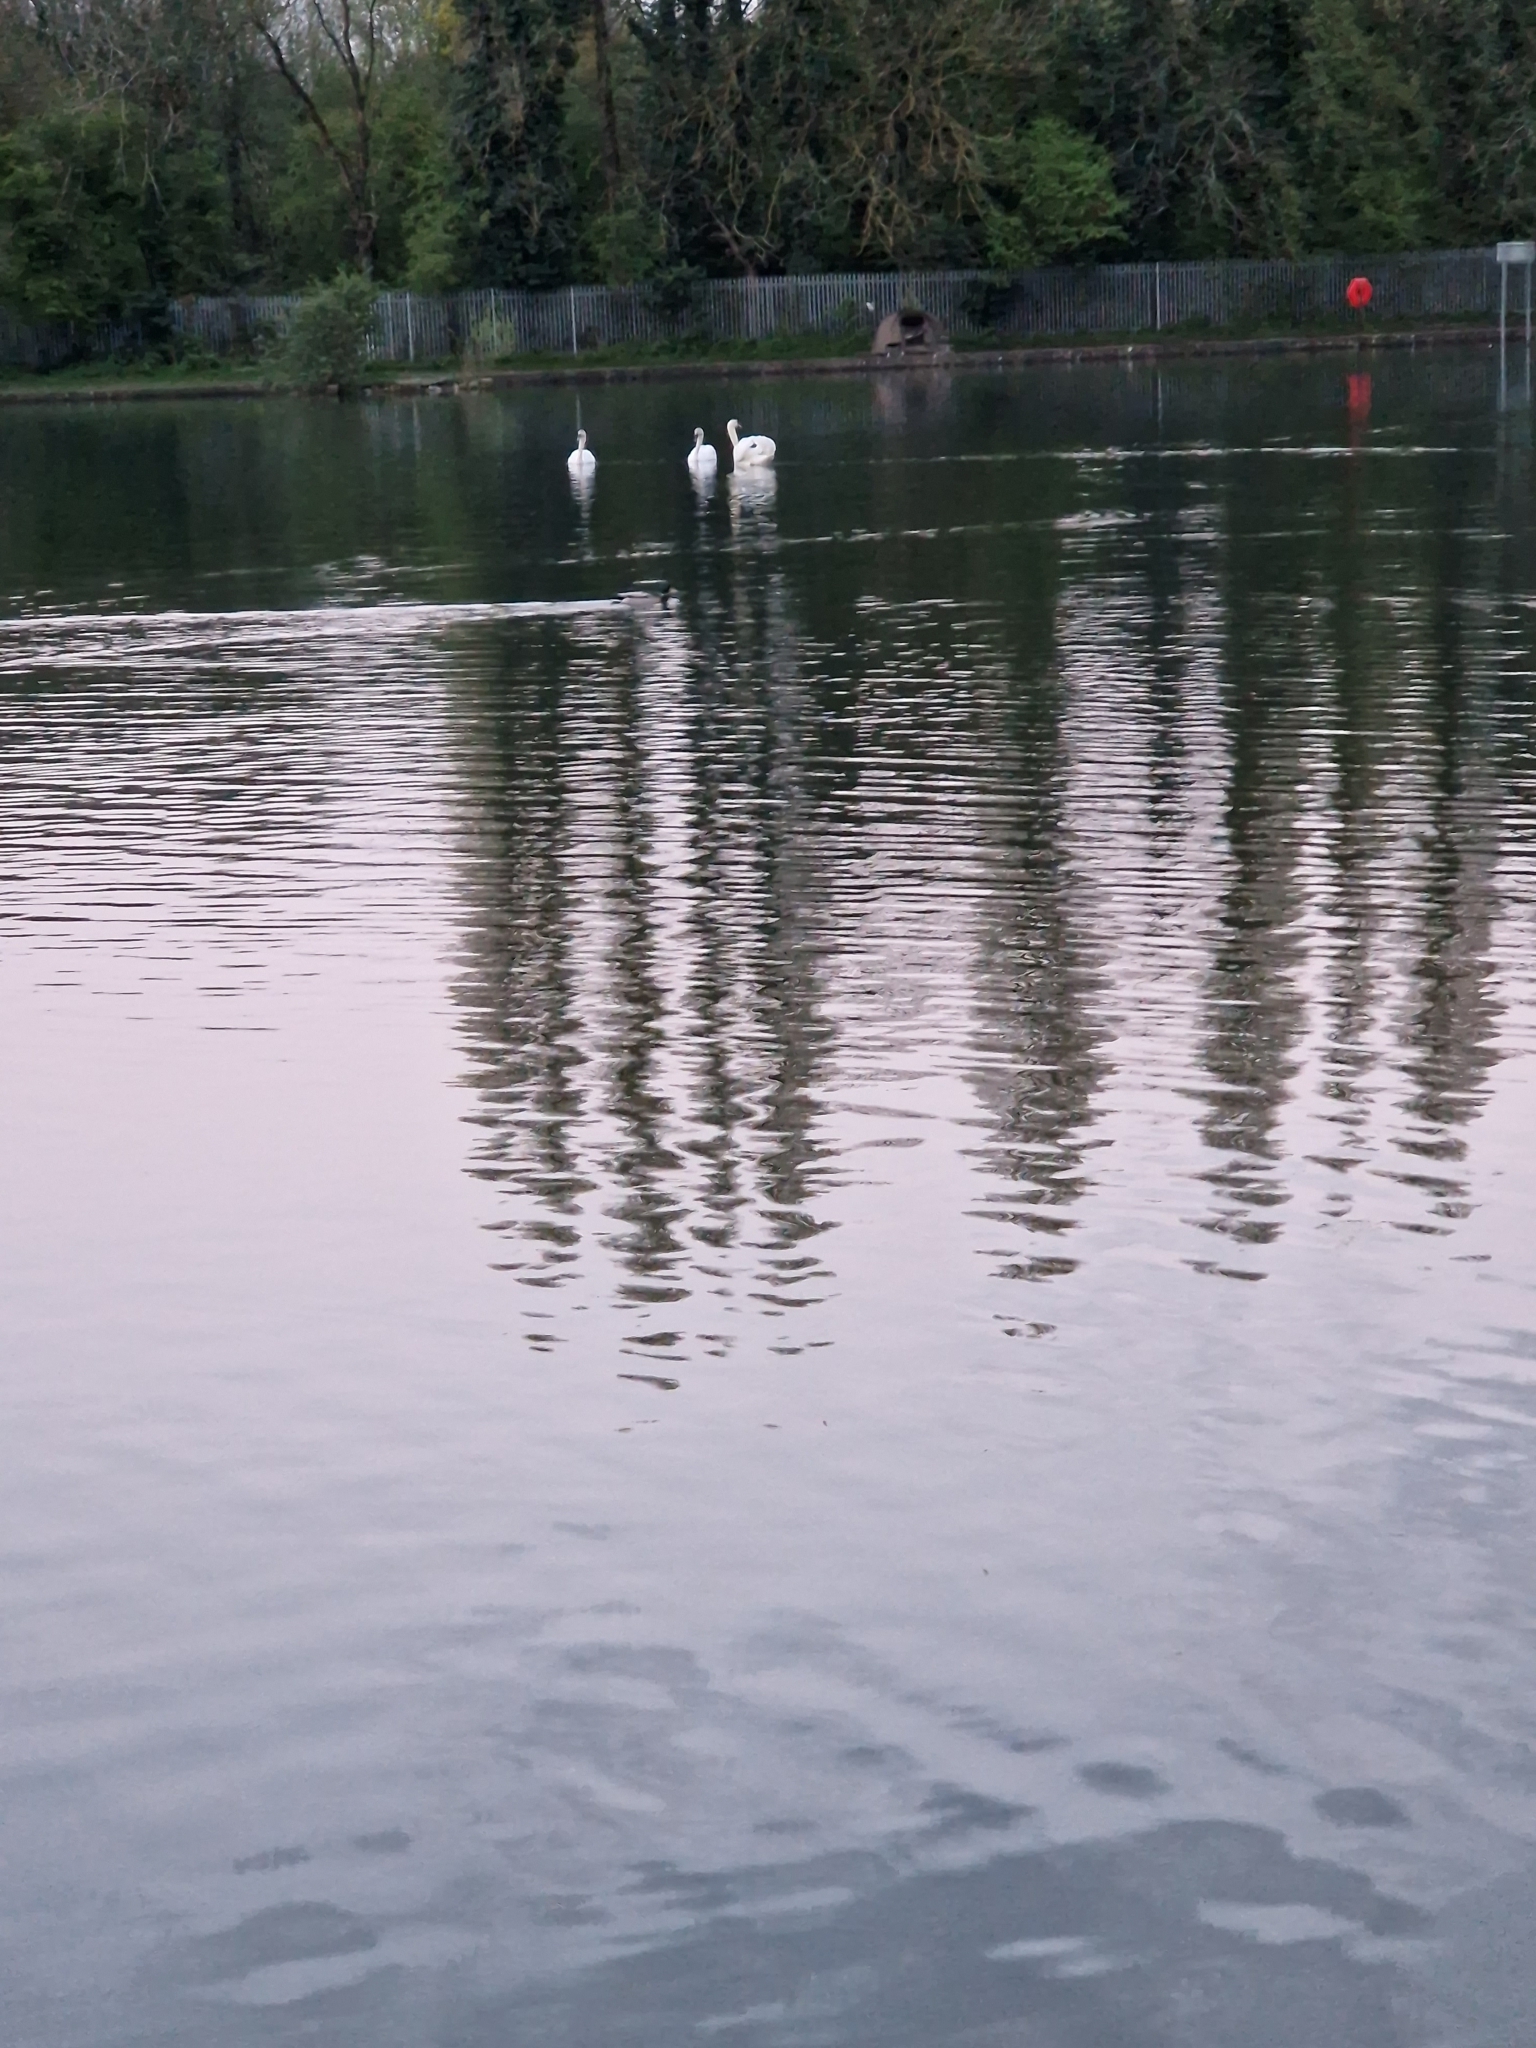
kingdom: Animalia
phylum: Chordata
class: Aves
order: Anseriformes
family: Anatidae
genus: Cygnus
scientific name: Cygnus olor
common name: Mute swan
